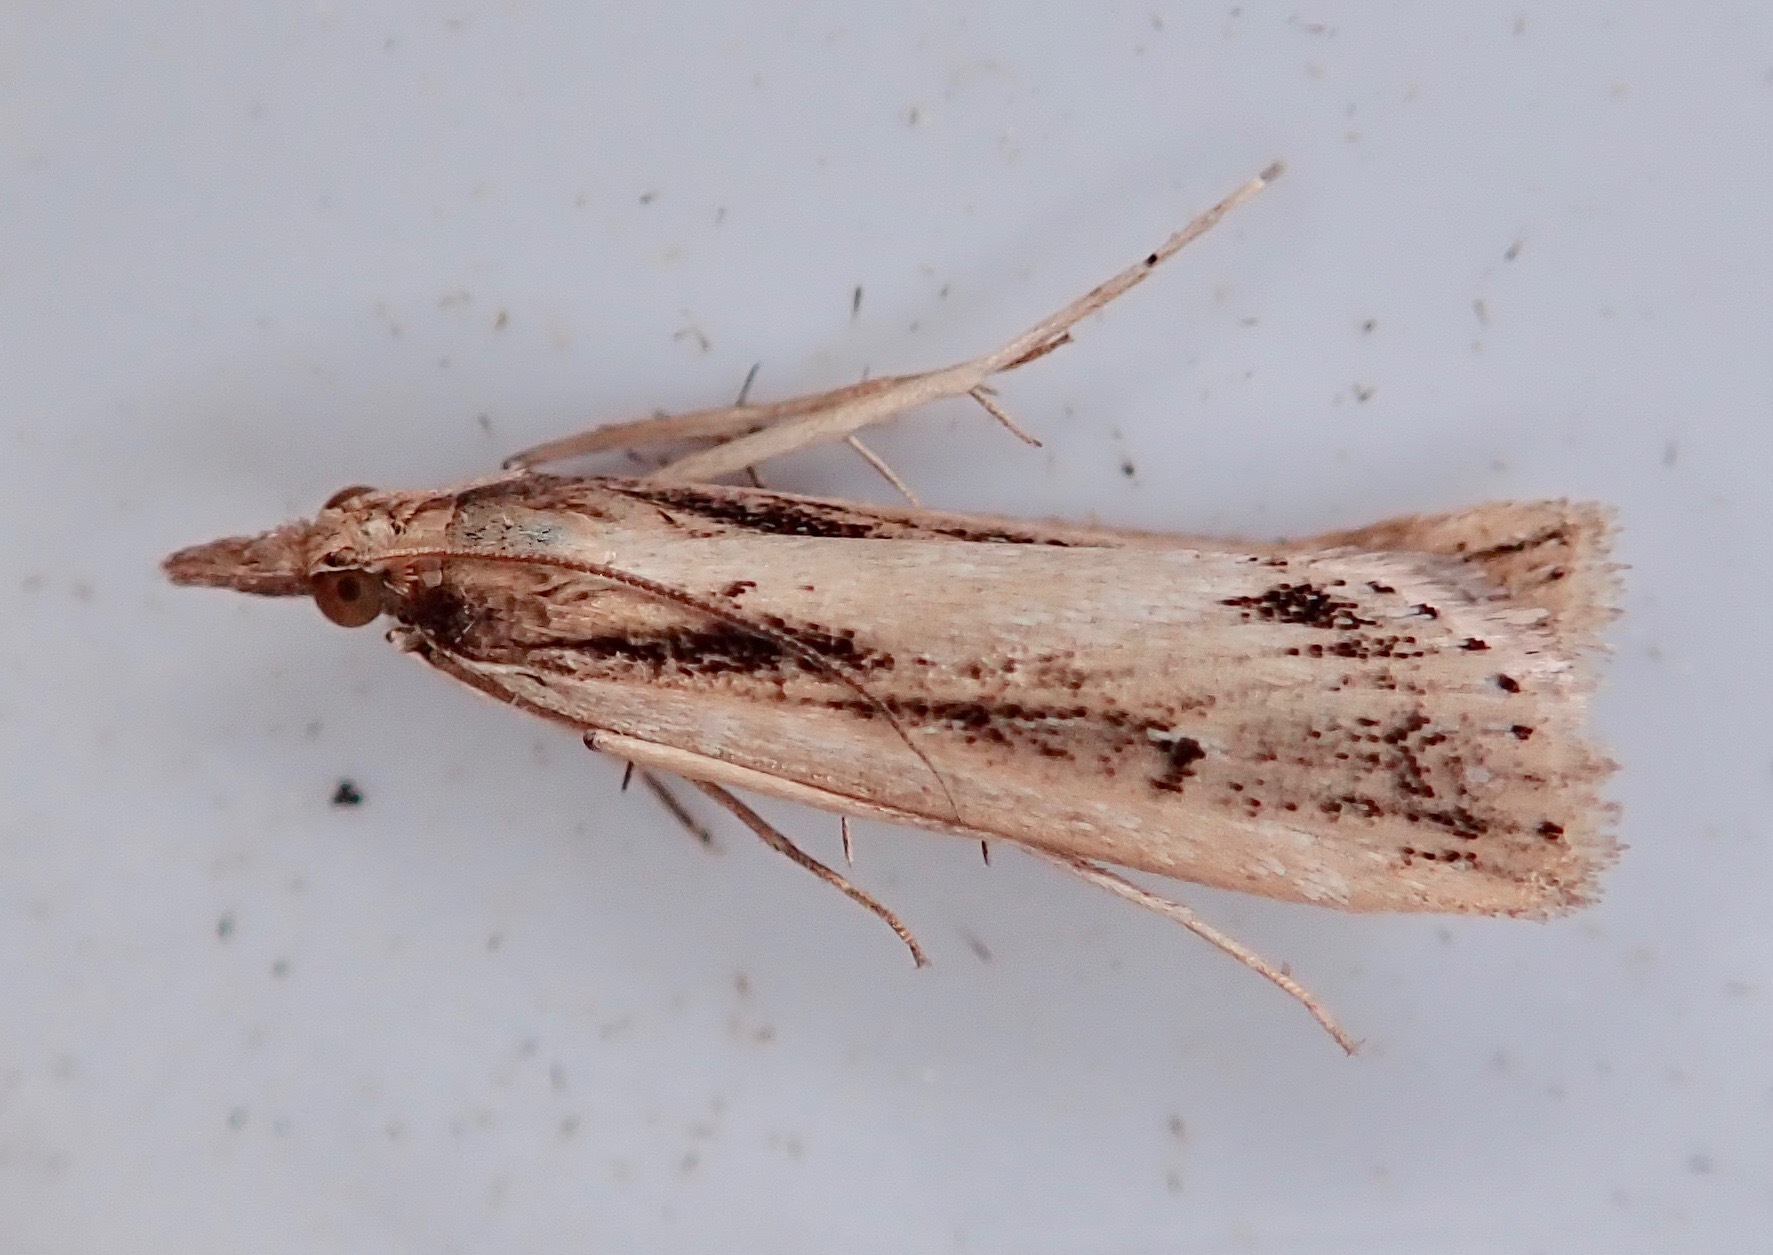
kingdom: Animalia
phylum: Arthropoda
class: Insecta
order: Lepidoptera
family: Crambidae
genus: Eudonia
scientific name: Eudonia sabulosella
